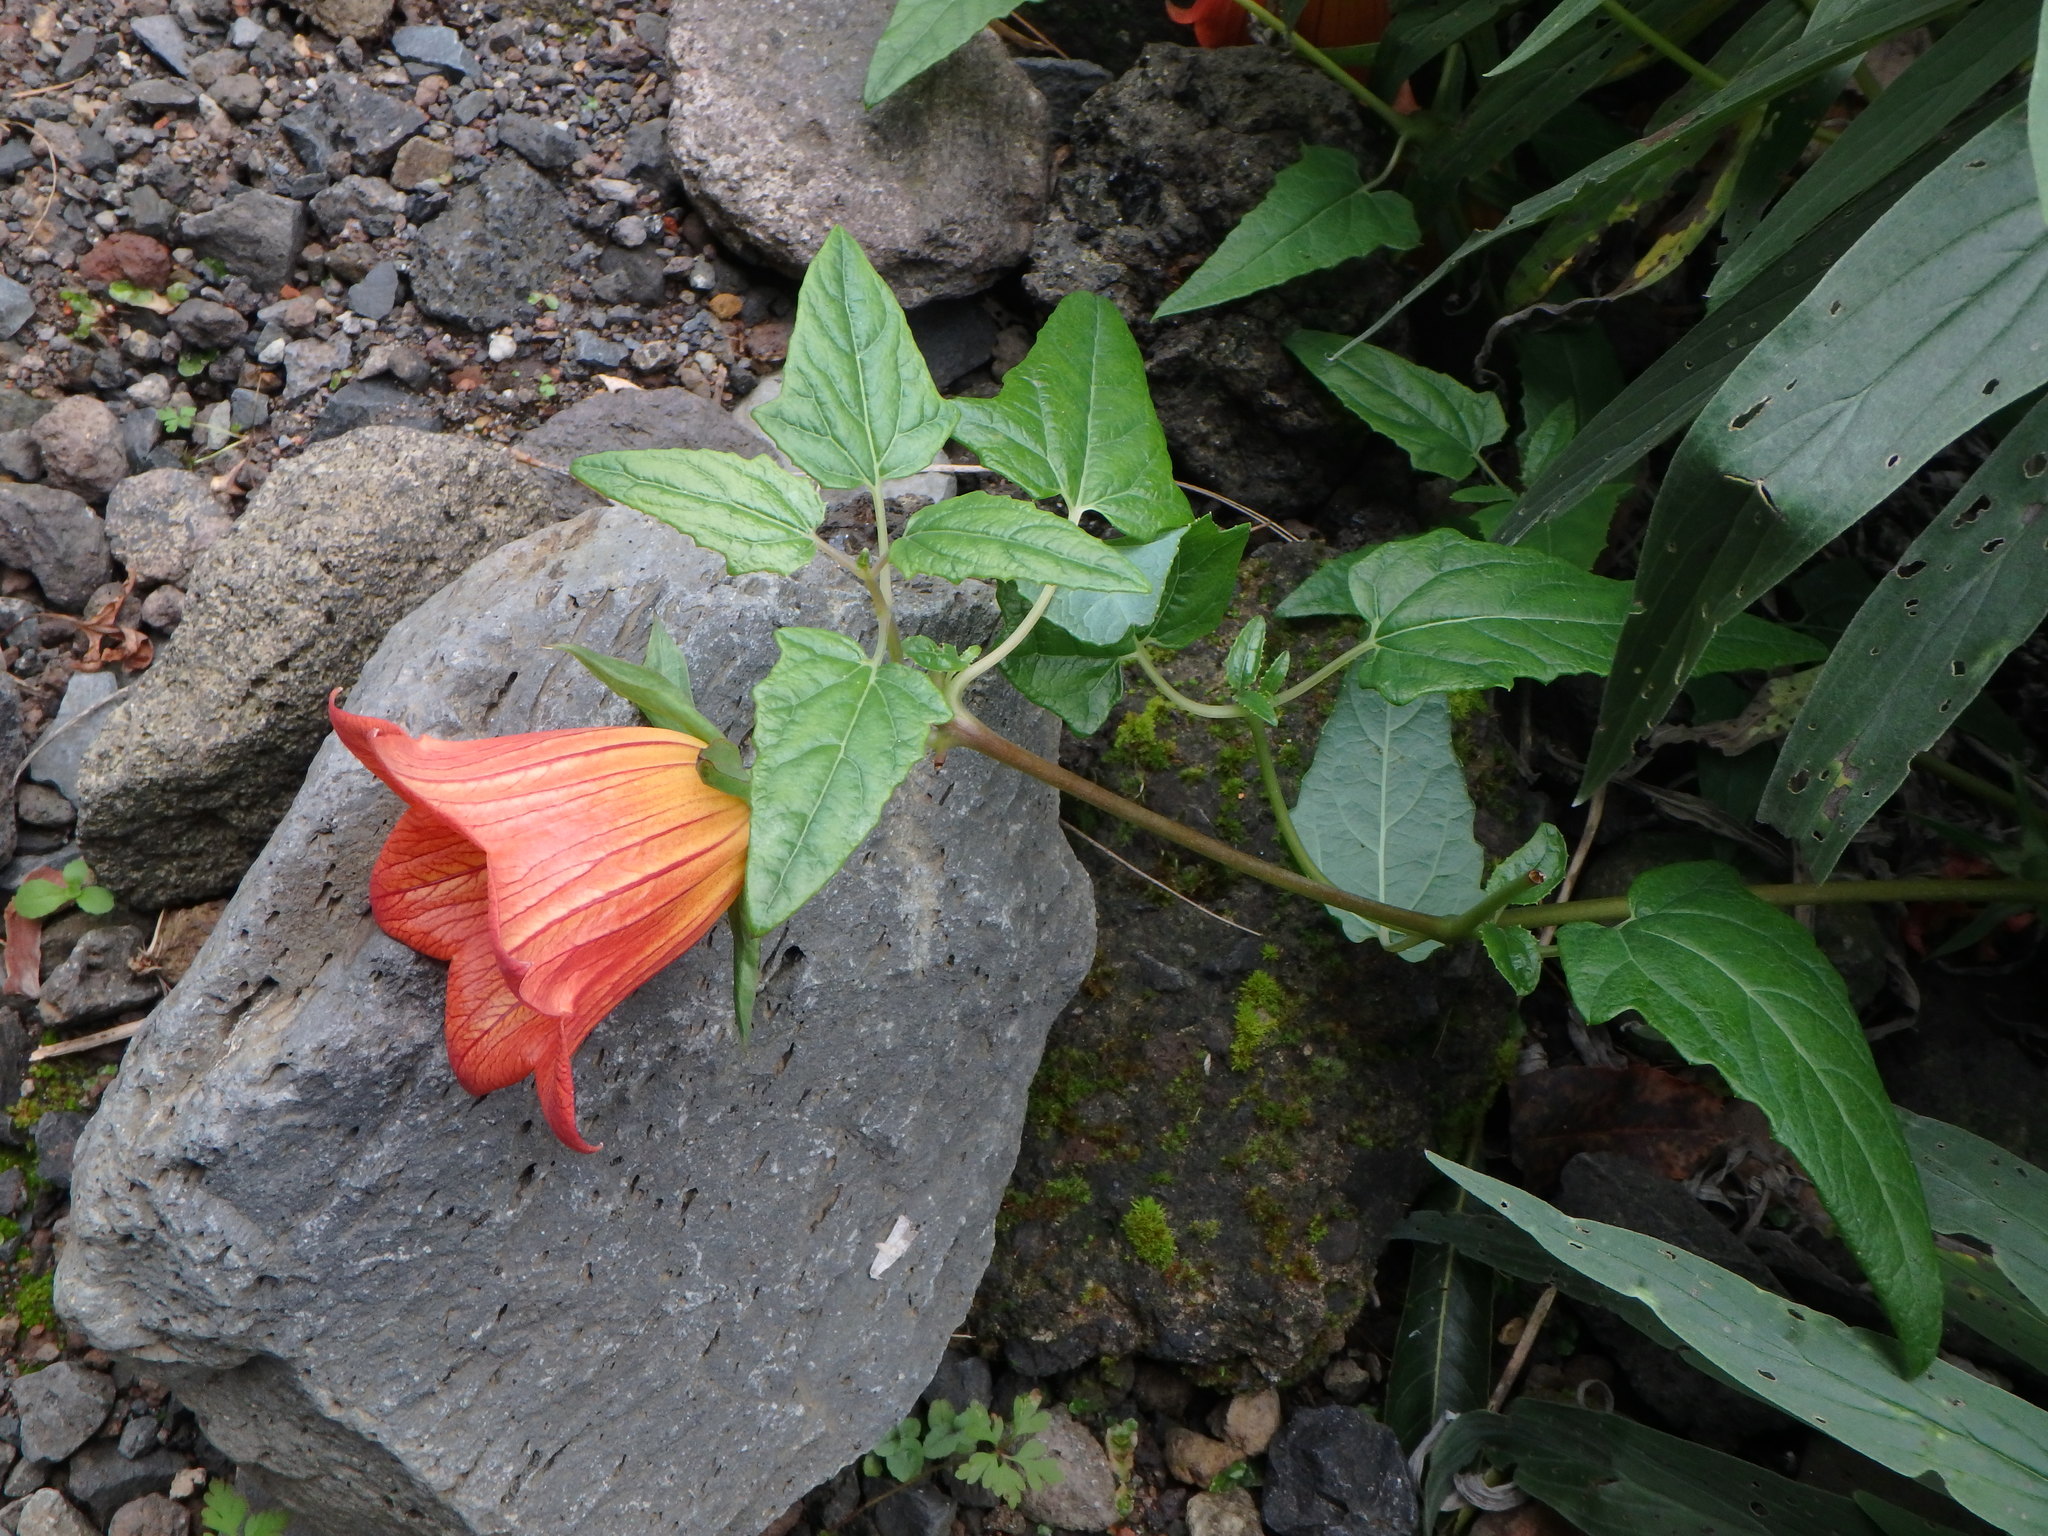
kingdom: Plantae
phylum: Tracheophyta
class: Magnoliopsida
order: Asterales
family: Campanulaceae
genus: Canarina
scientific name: Canarina canariensis
